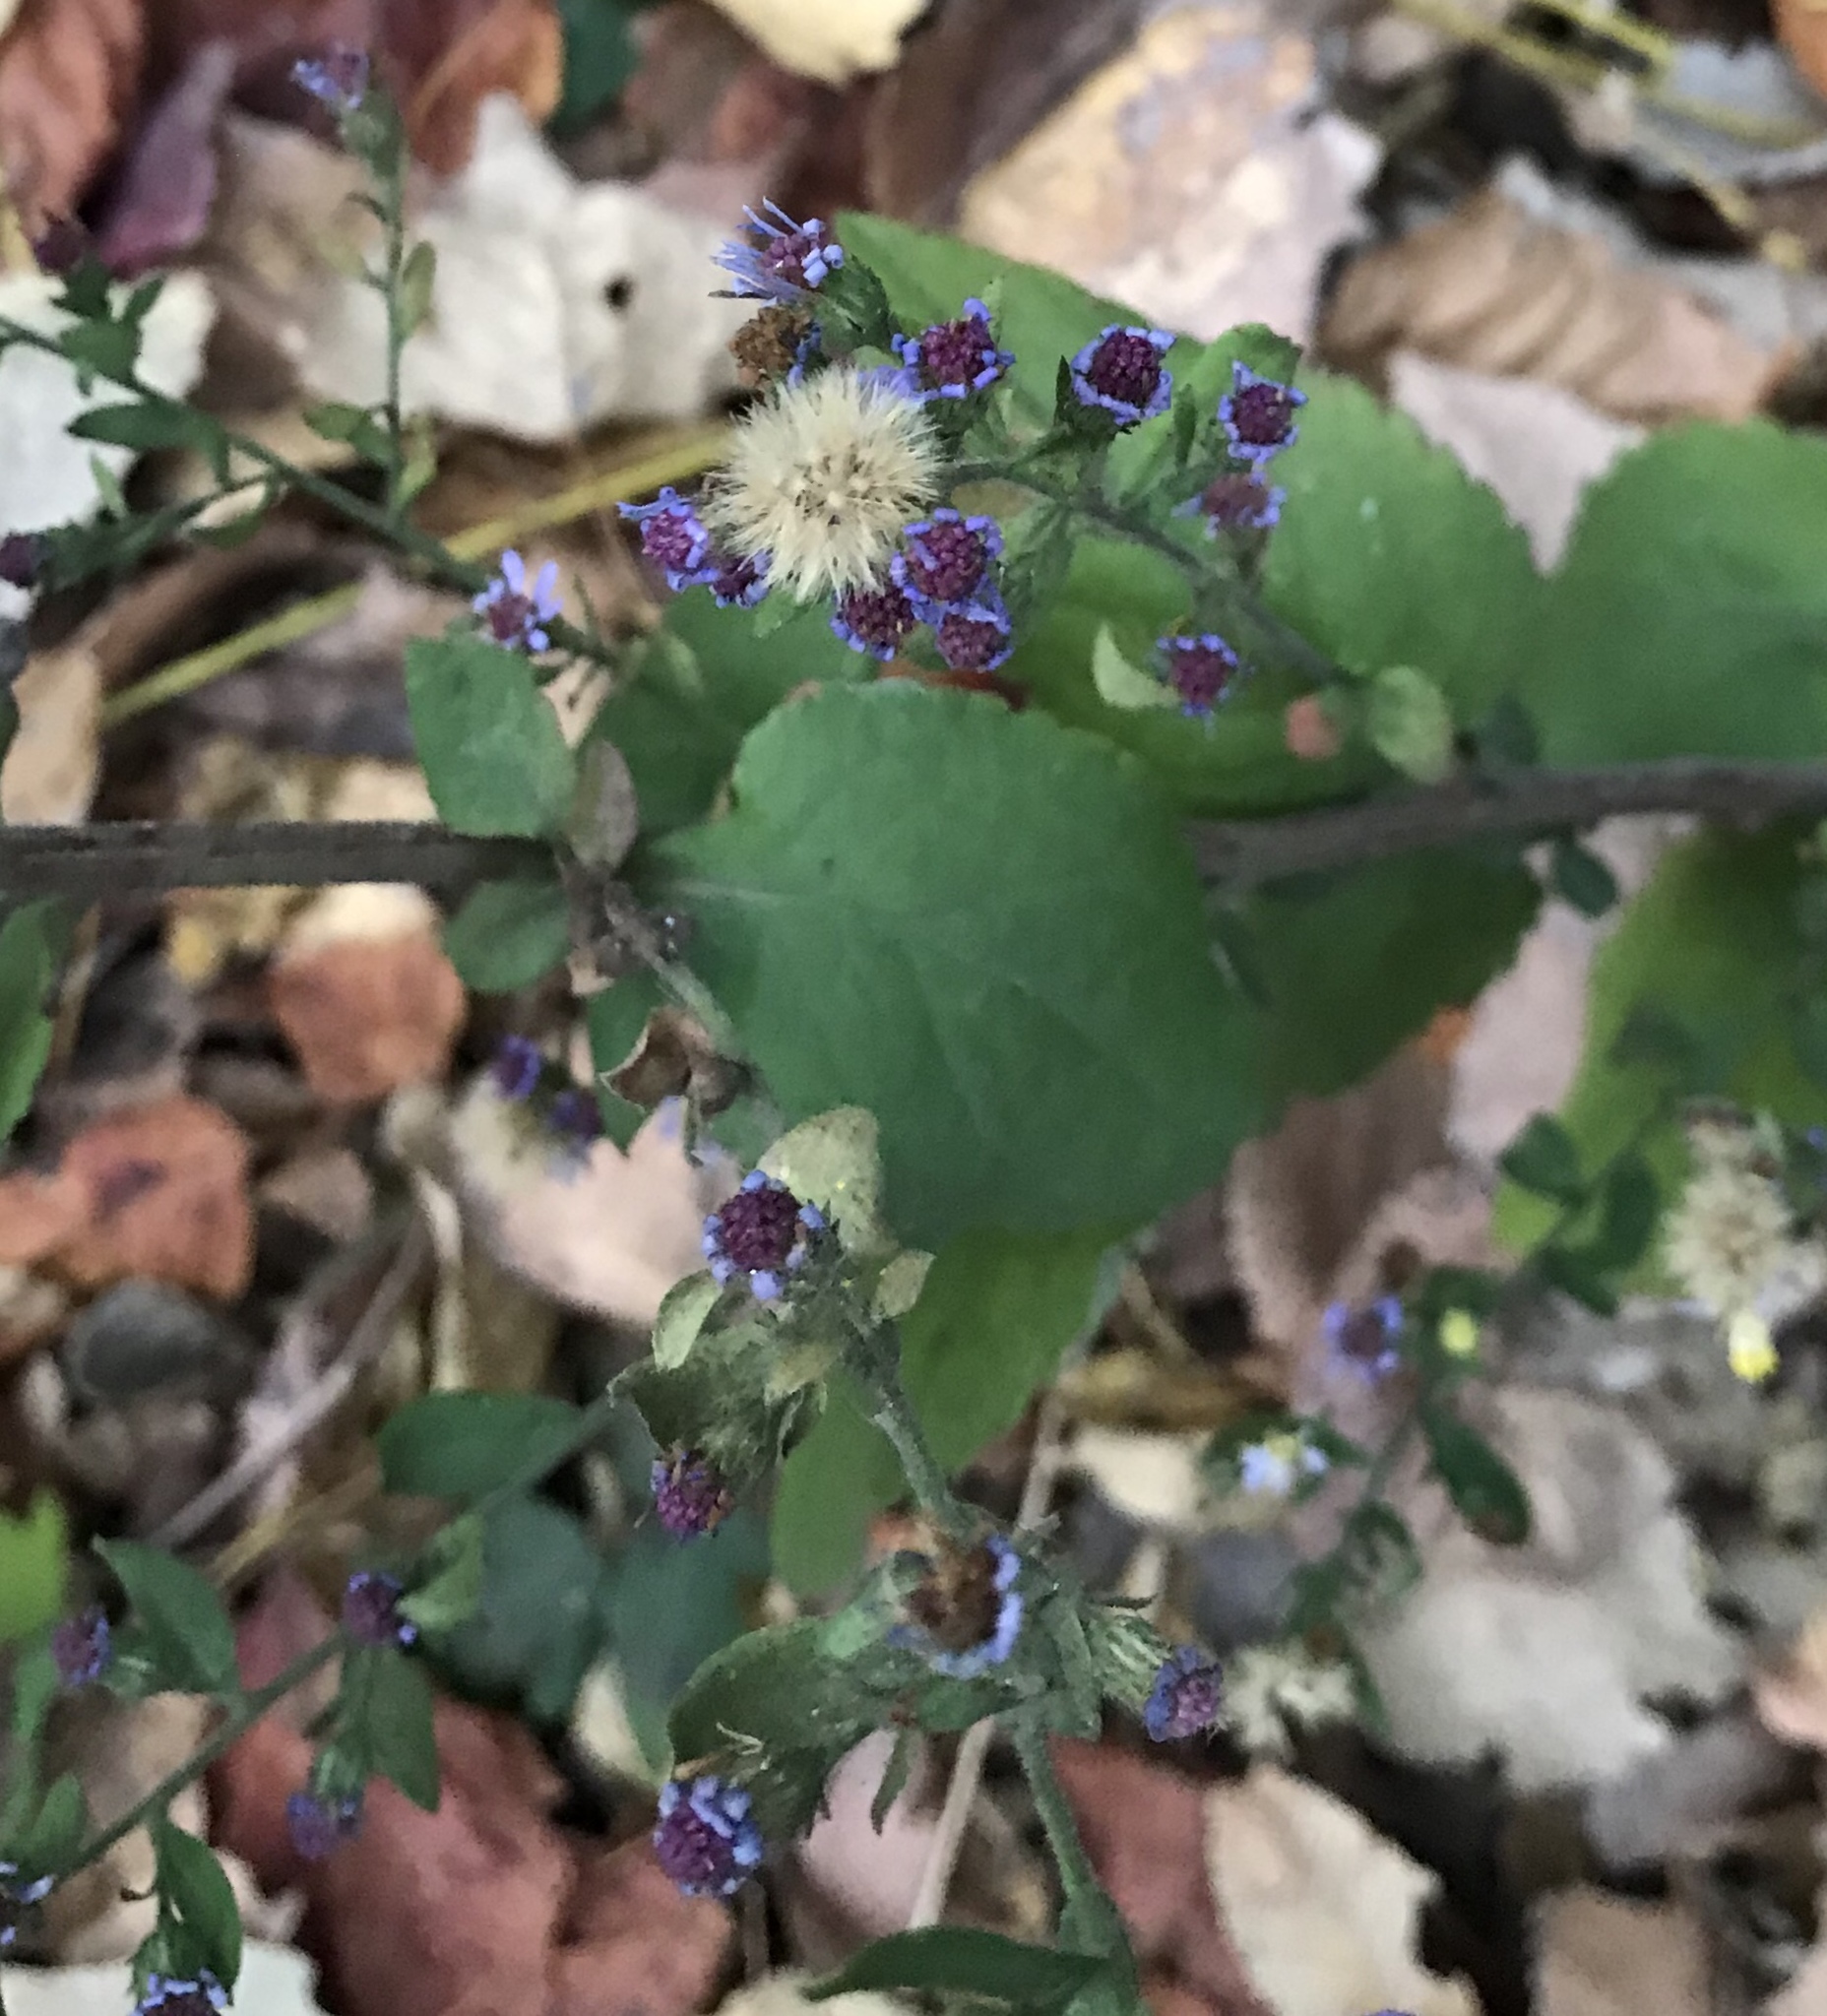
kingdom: Plantae
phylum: Tracheophyta
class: Magnoliopsida
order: Asterales
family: Asteraceae
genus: Symphyotrichum
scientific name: Symphyotrichum drummondii
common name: Drummond's aster
